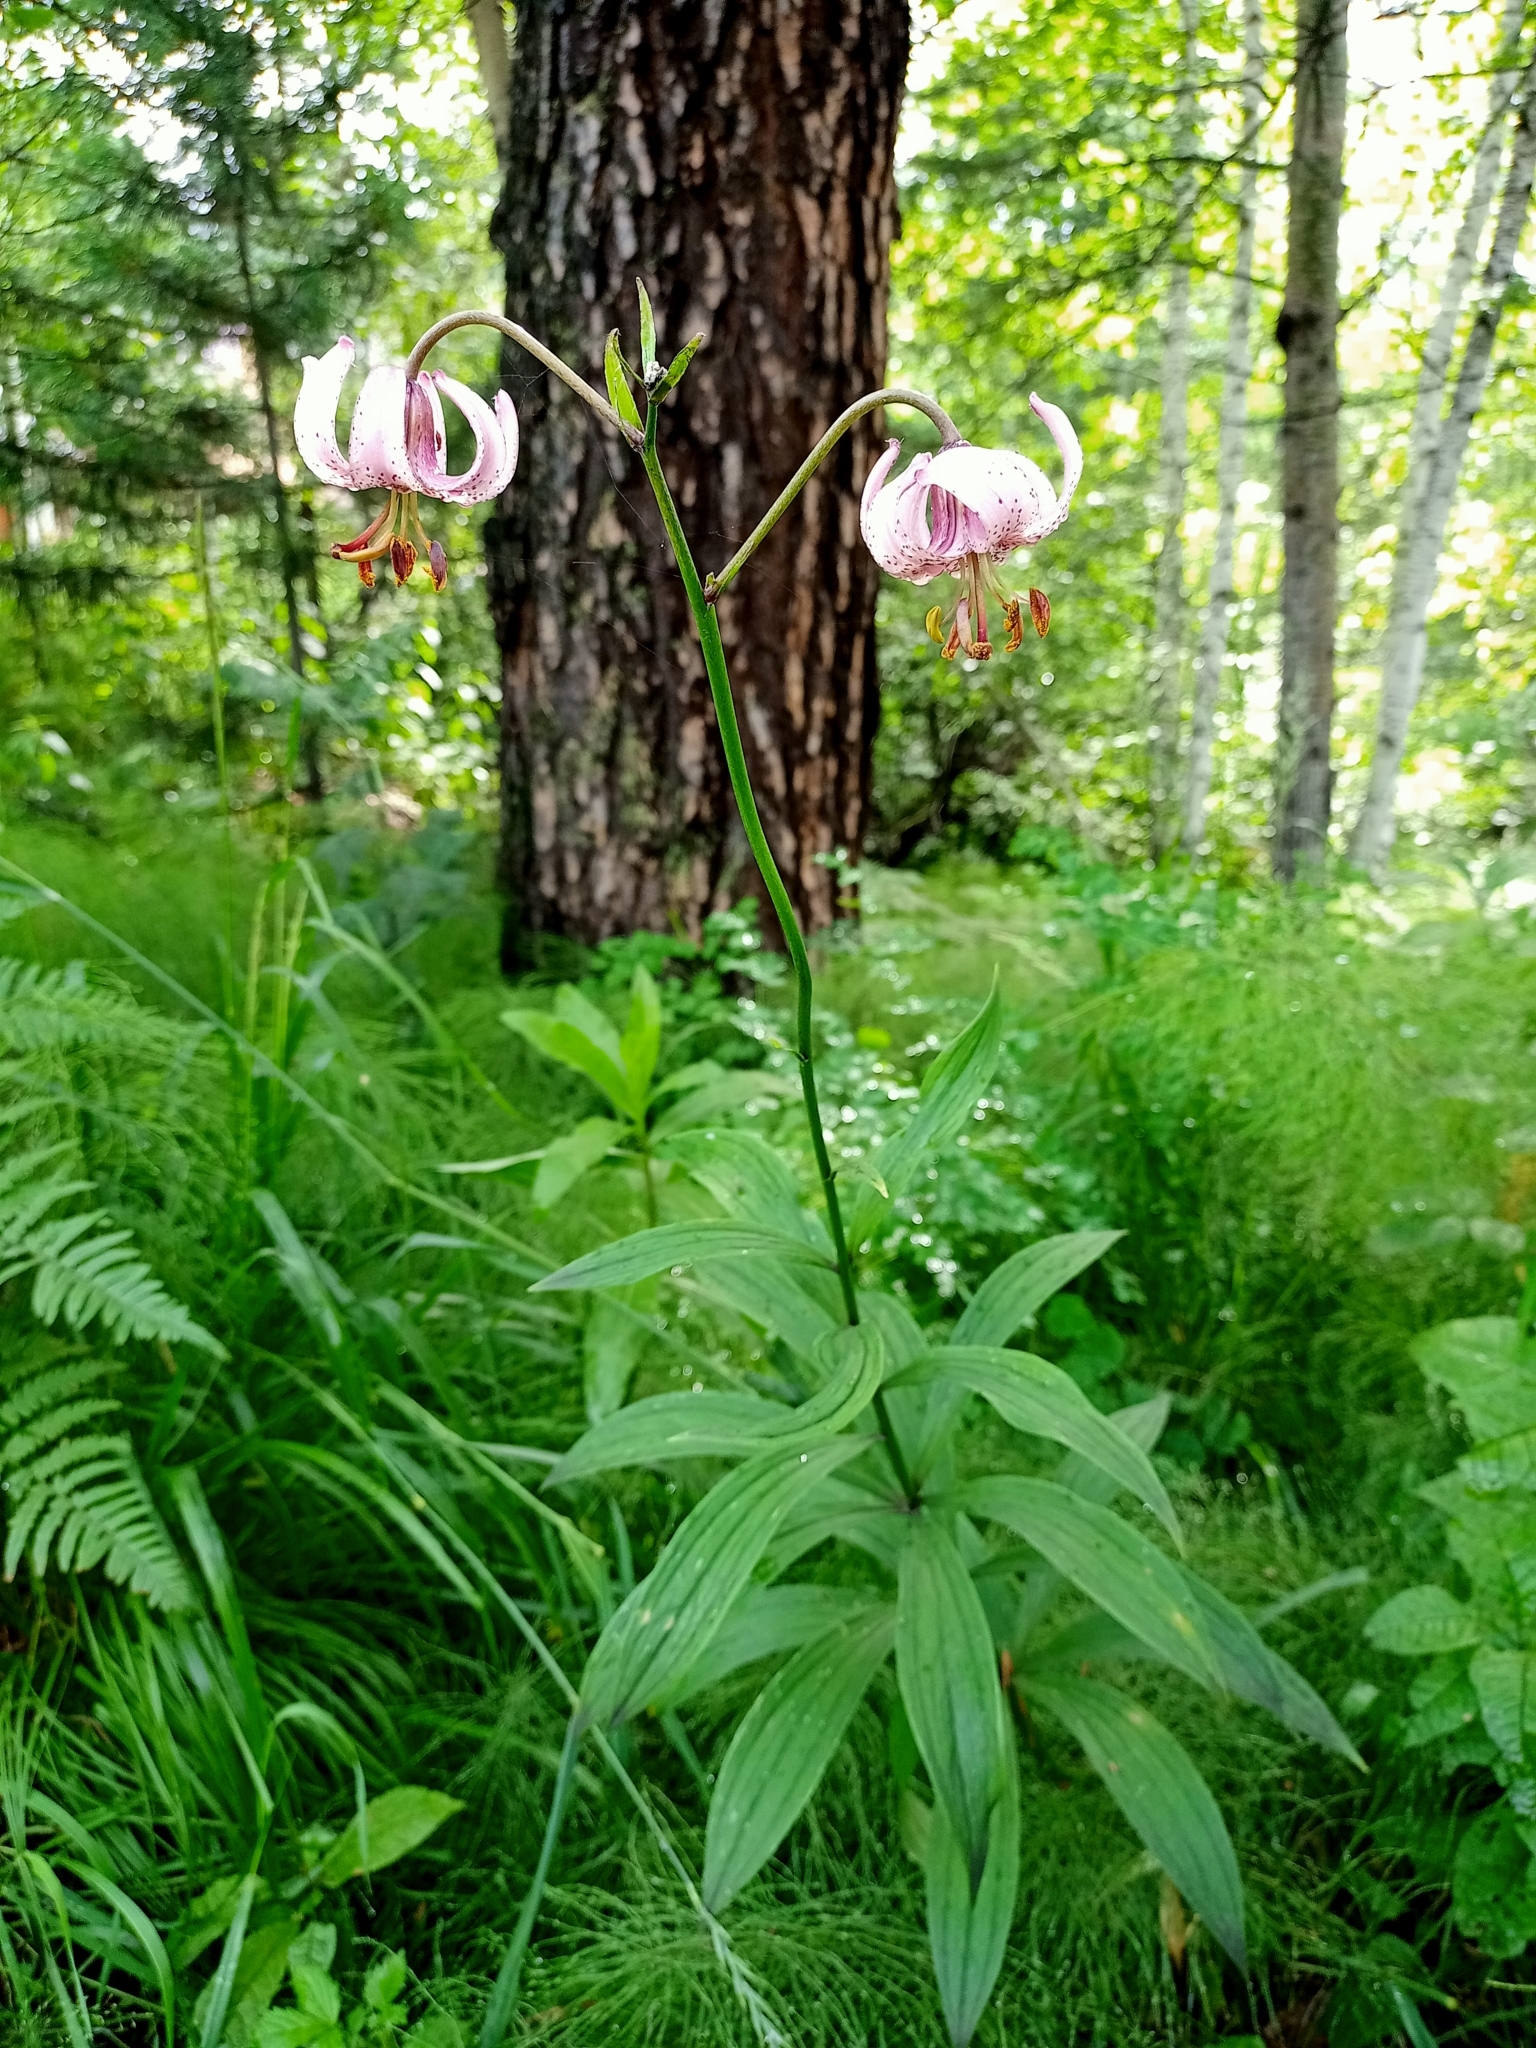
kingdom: Plantae
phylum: Tracheophyta
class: Liliopsida
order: Liliales
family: Liliaceae
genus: Lilium
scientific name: Lilium martagon
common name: Martagon lily
